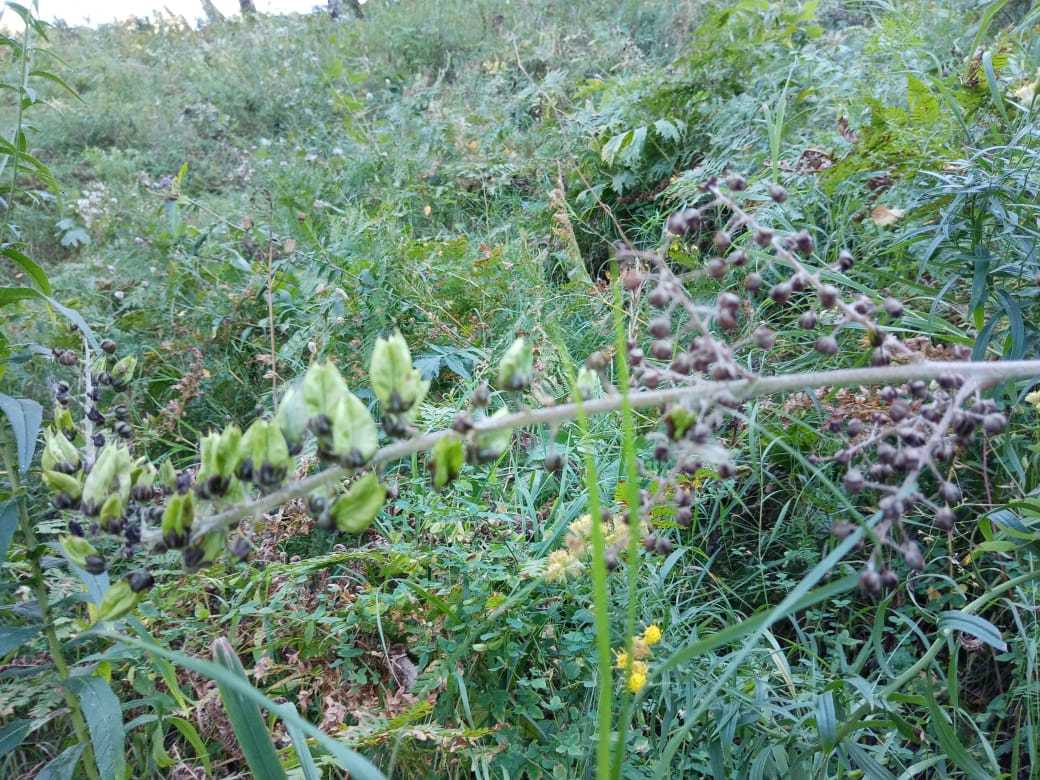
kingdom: Plantae
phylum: Tracheophyta
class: Liliopsida
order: Liliales
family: Melanthiaceae
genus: Veratrum
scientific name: Veratrum nigrum
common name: Black veratrum
